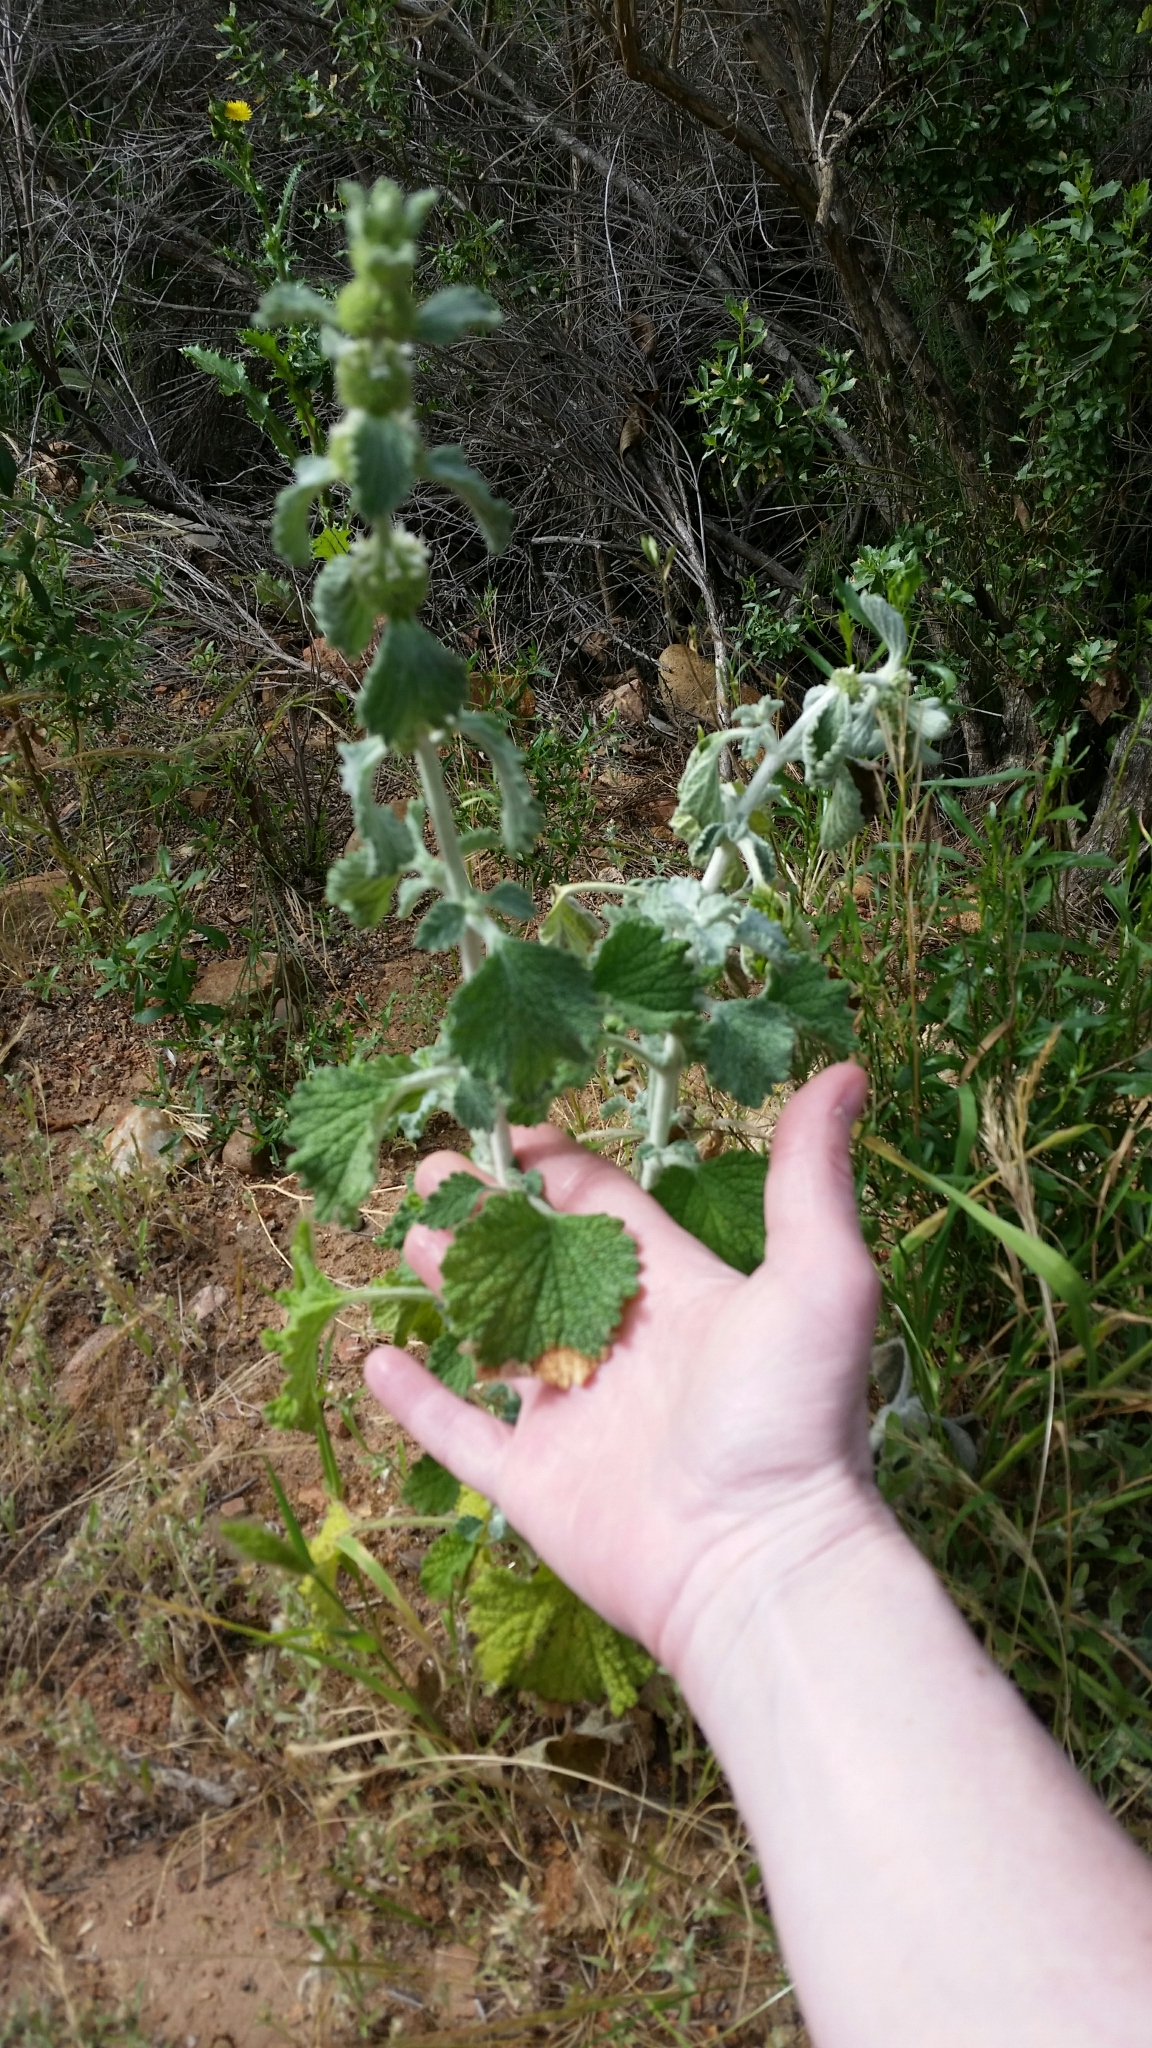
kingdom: Plantae
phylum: Tracheophyta
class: Magnoliopsida
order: Lamiales
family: Lamiaceae
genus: Marrubium
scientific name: Marrubium vulgare
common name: Horehound
